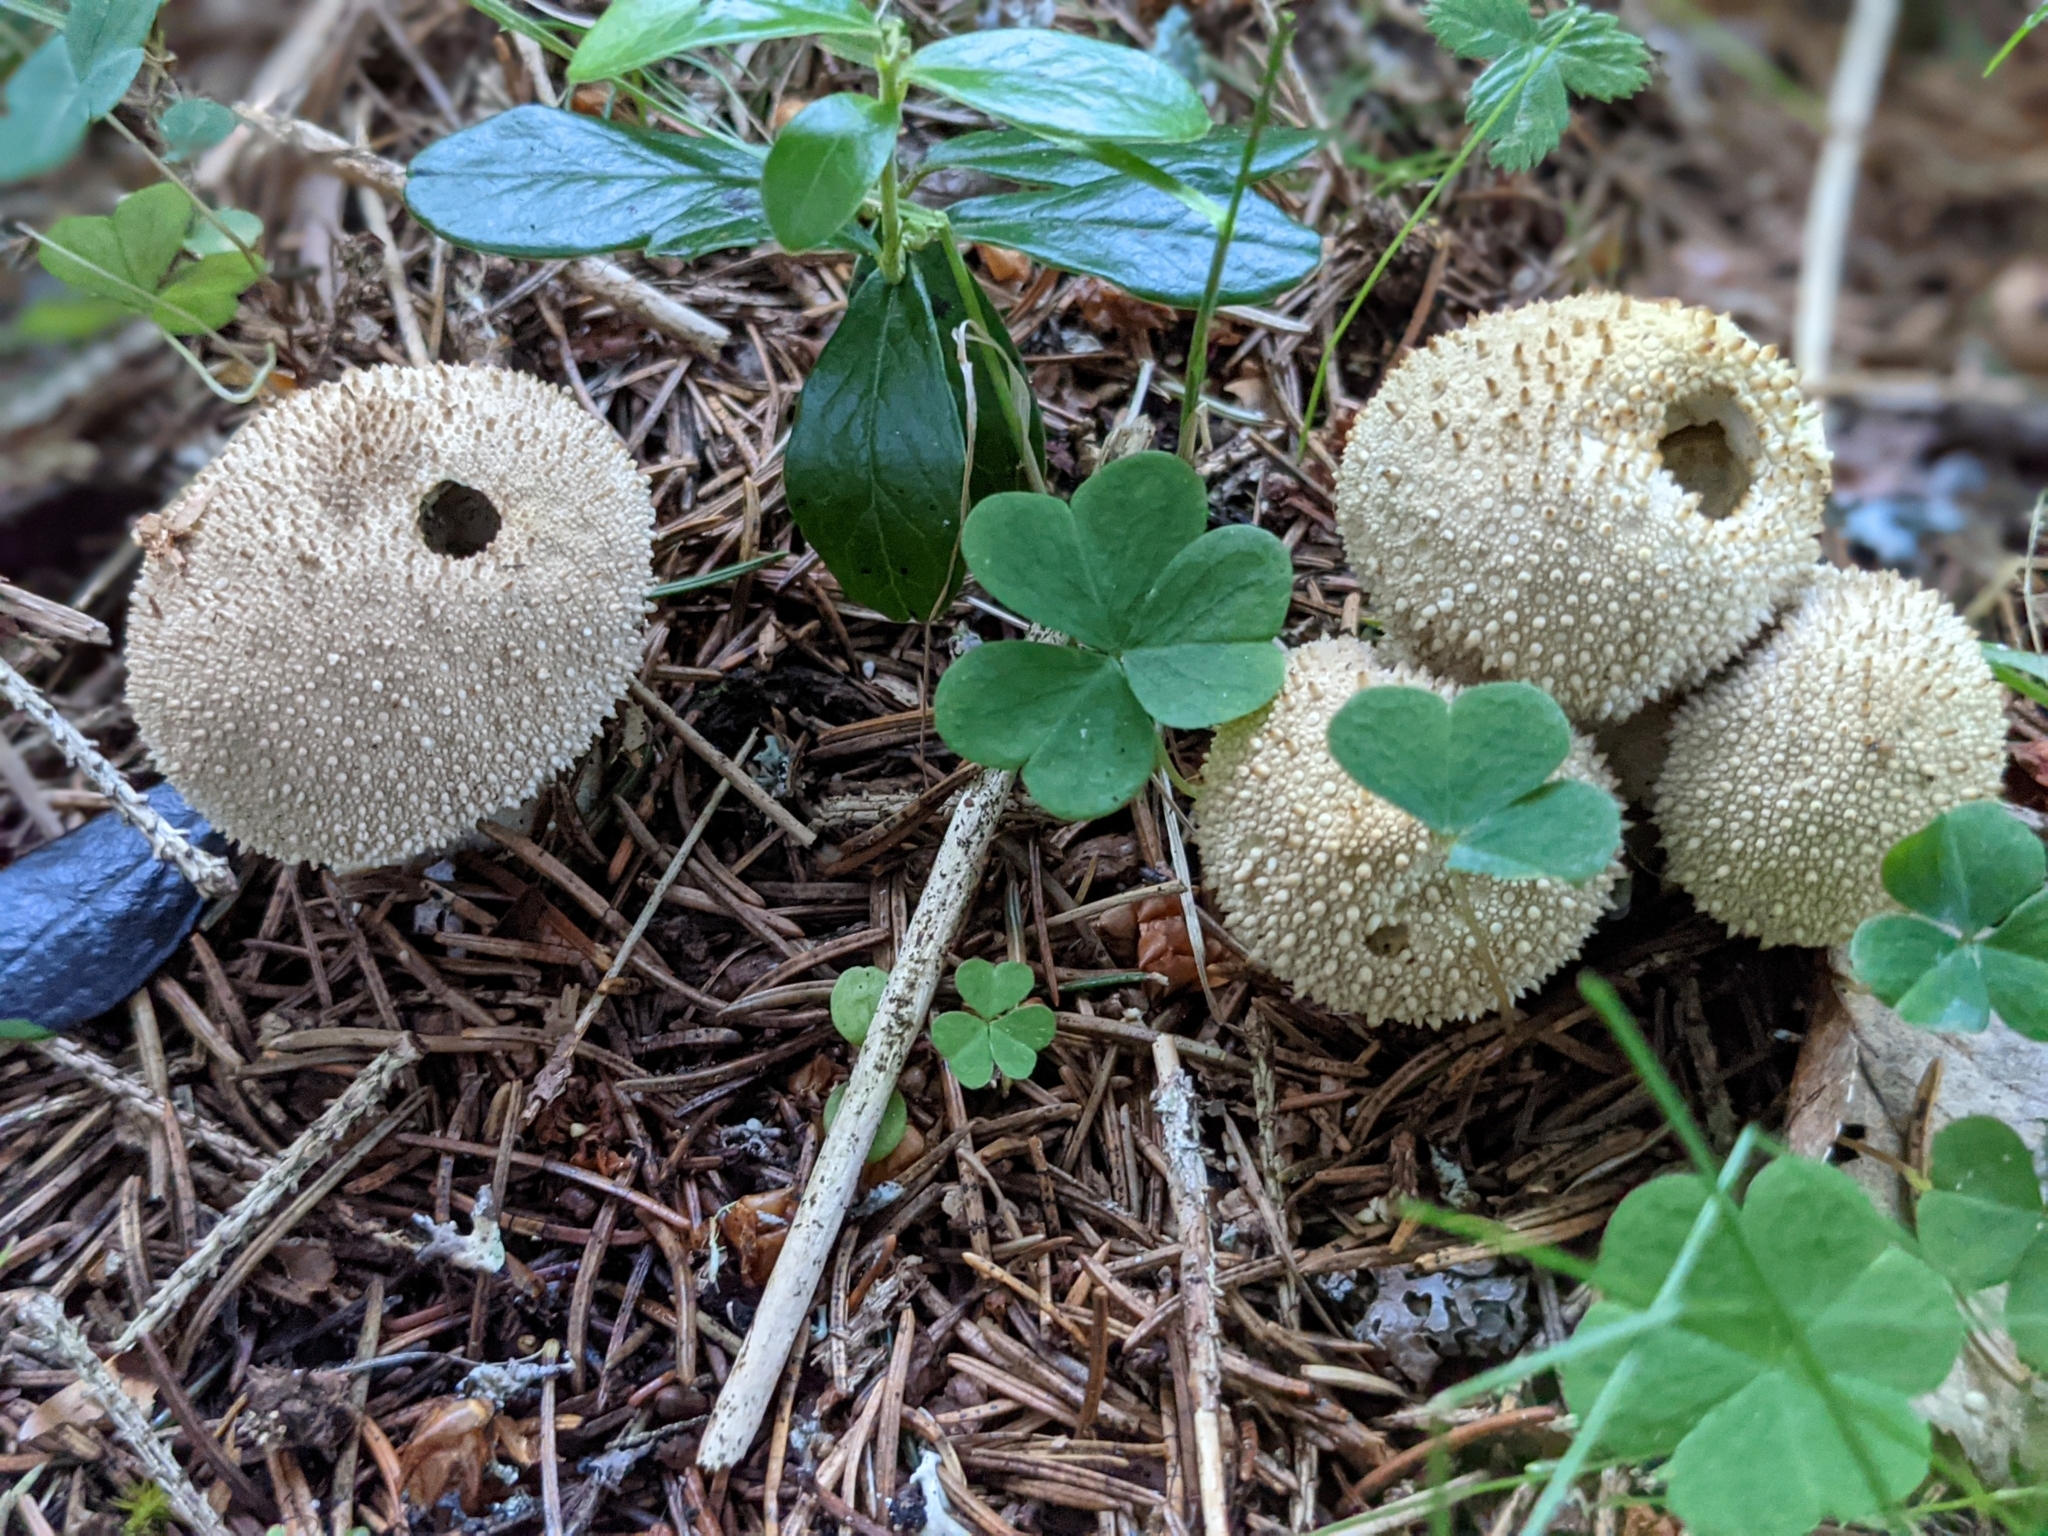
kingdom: Fungi
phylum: Basidiomycota
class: Agaricomycetes
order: Agaricales
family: Lycoperdaceae
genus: Lycoperdon
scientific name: Lycoperdon perlatum
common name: Common puffball
